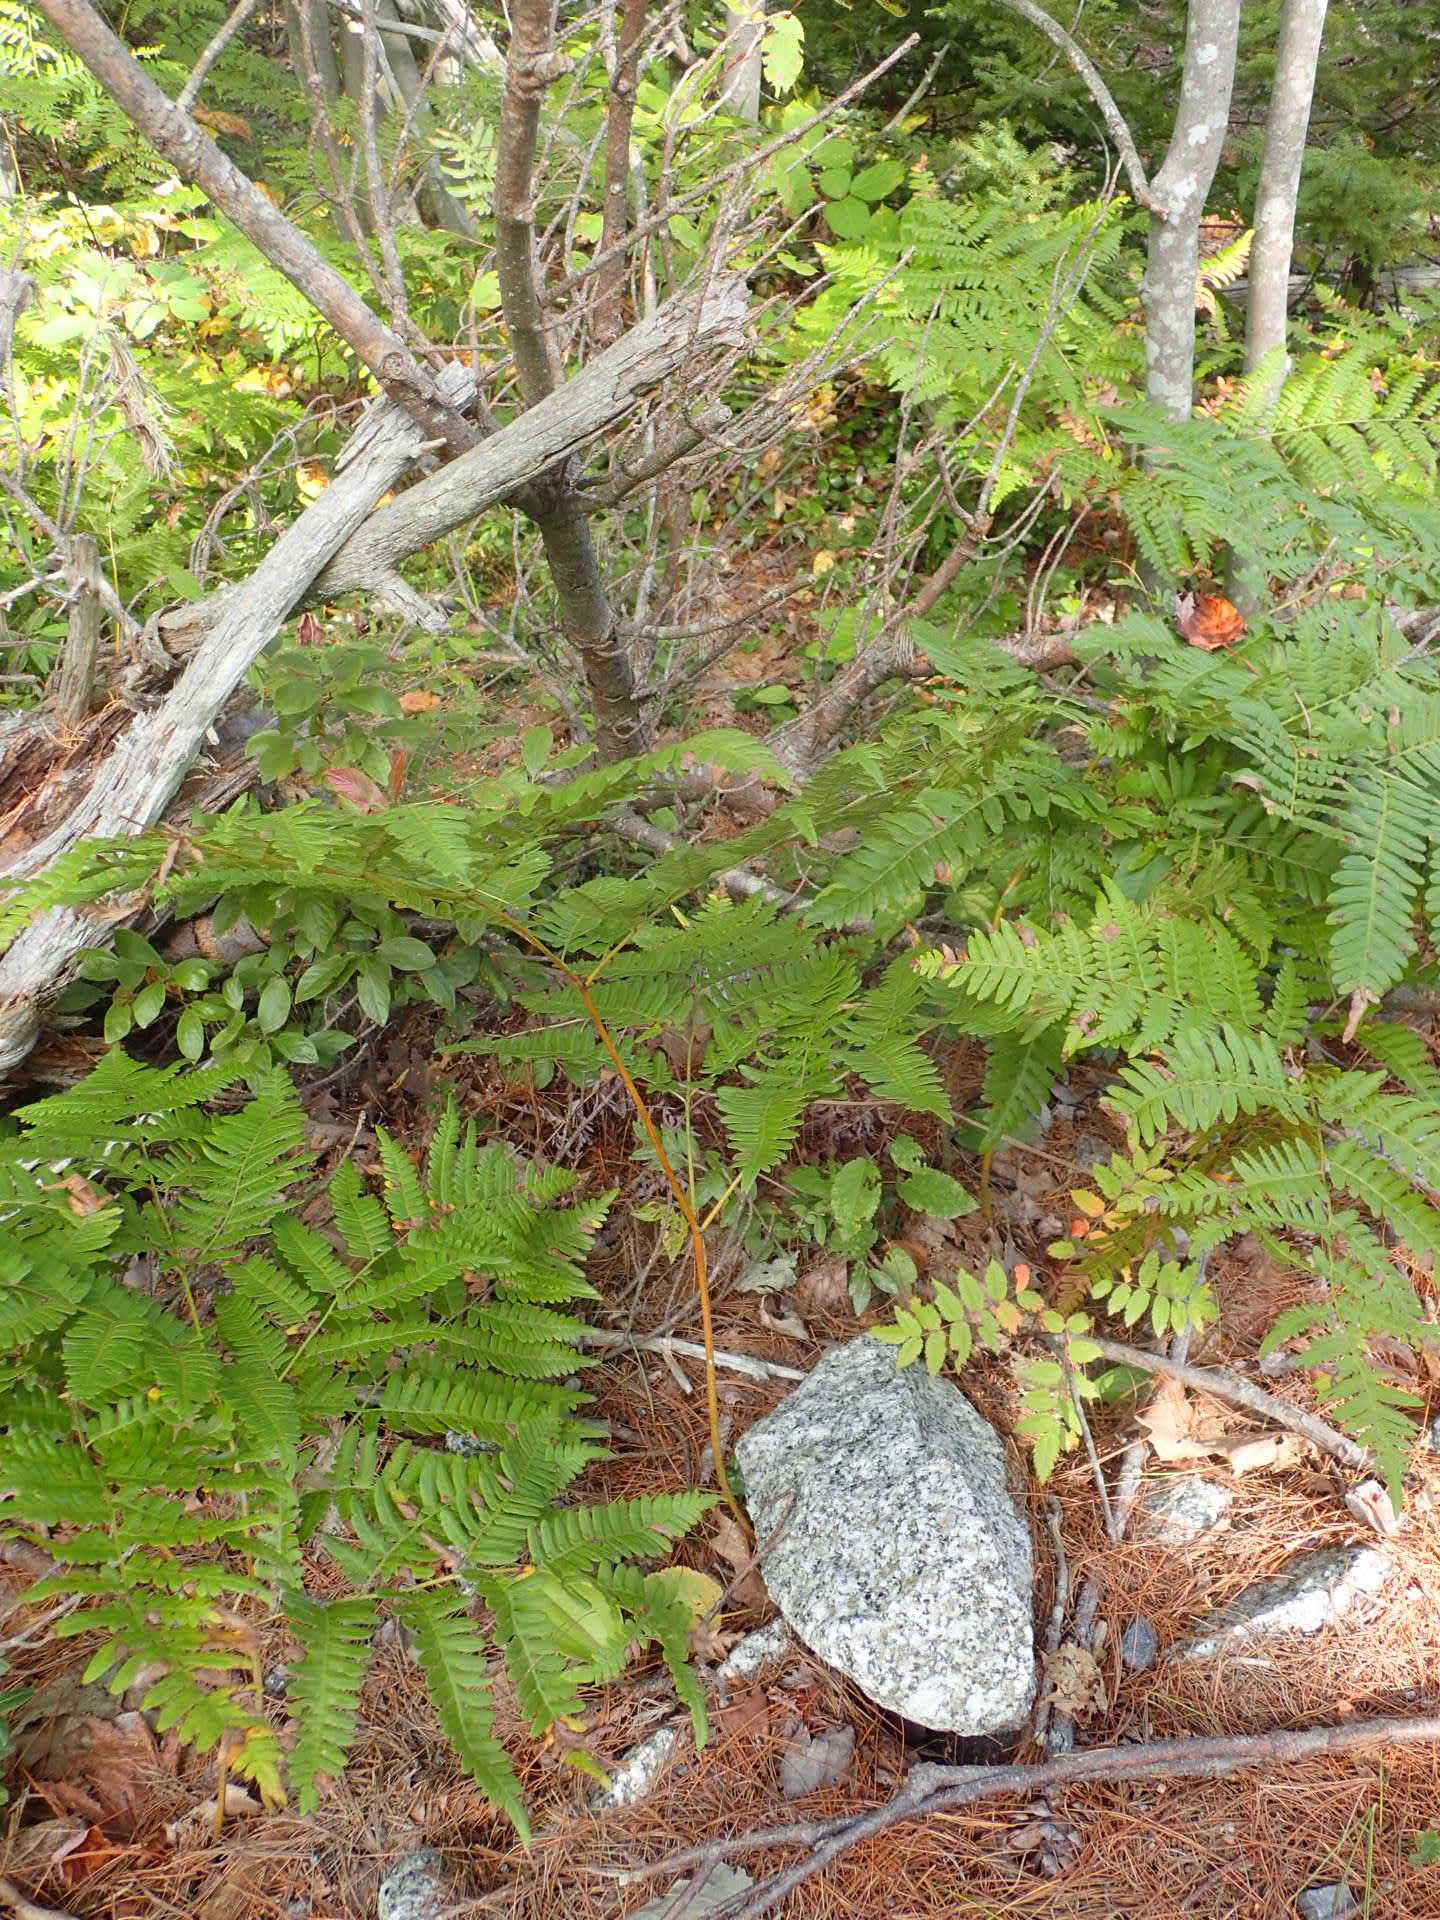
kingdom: Plantae
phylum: Tracheophyta
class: Polypodiopsida
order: Polypodiales
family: Dennstaedtiaceae
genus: Pteridium
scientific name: Pteridium aquilinum
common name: Bracken
